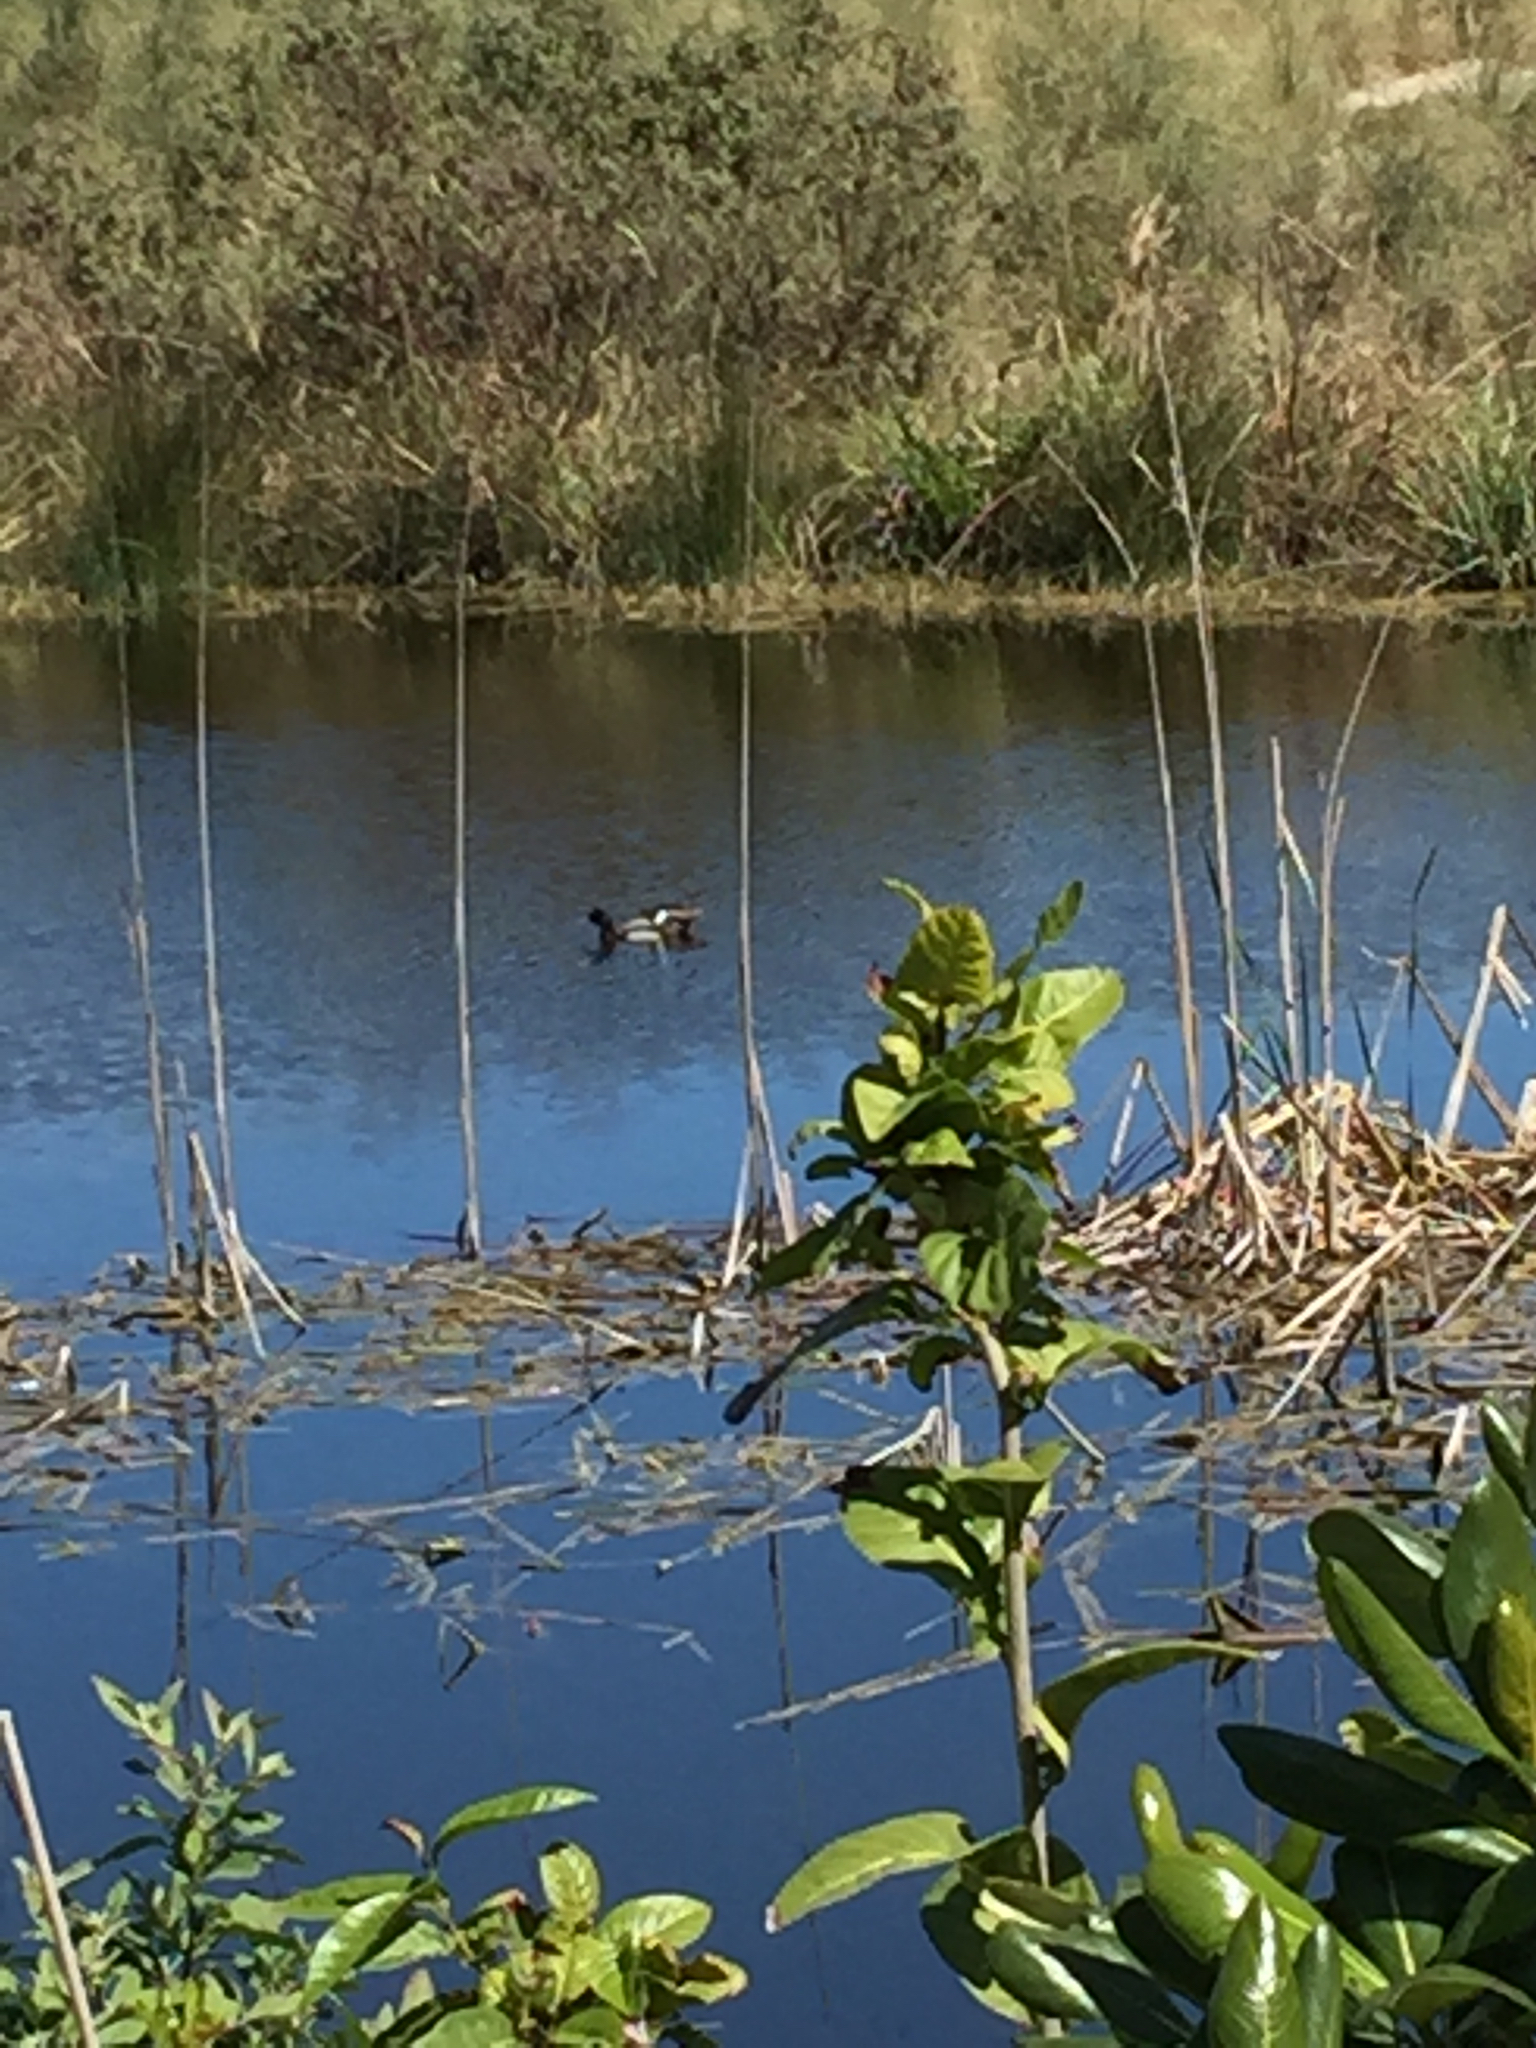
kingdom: Animalia
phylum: Chordata
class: Aves
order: Anseriformes
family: Anatidae
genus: Aythya
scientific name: Aythya affinis
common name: Lesser scaup
